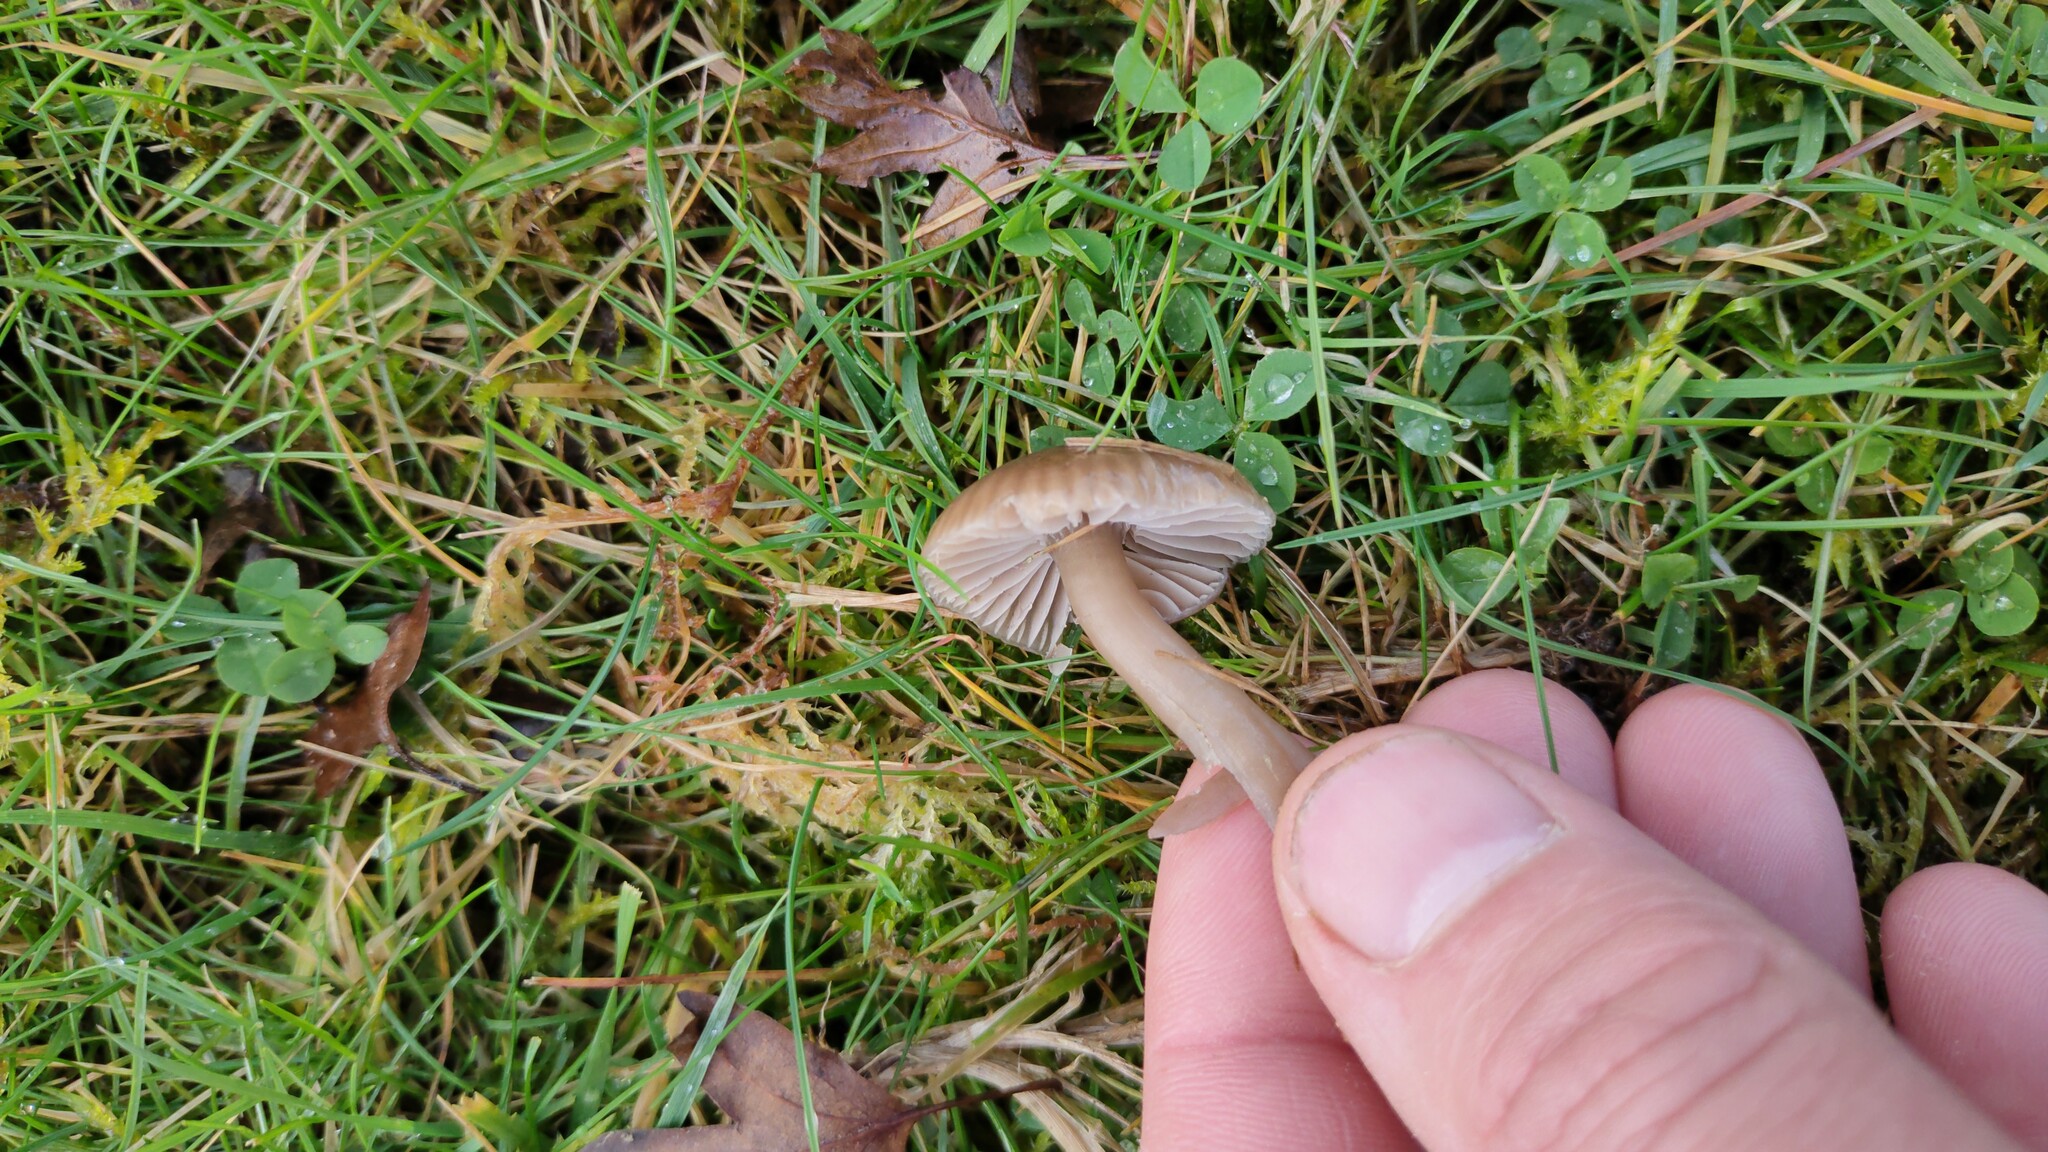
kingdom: Fungi
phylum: Basidiomycota
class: Agaricomycetes
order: Agaricales
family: Hygrophoraceae
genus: Gliophorus
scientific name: Gliophorus irrigatus
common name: Slimy waxcap
